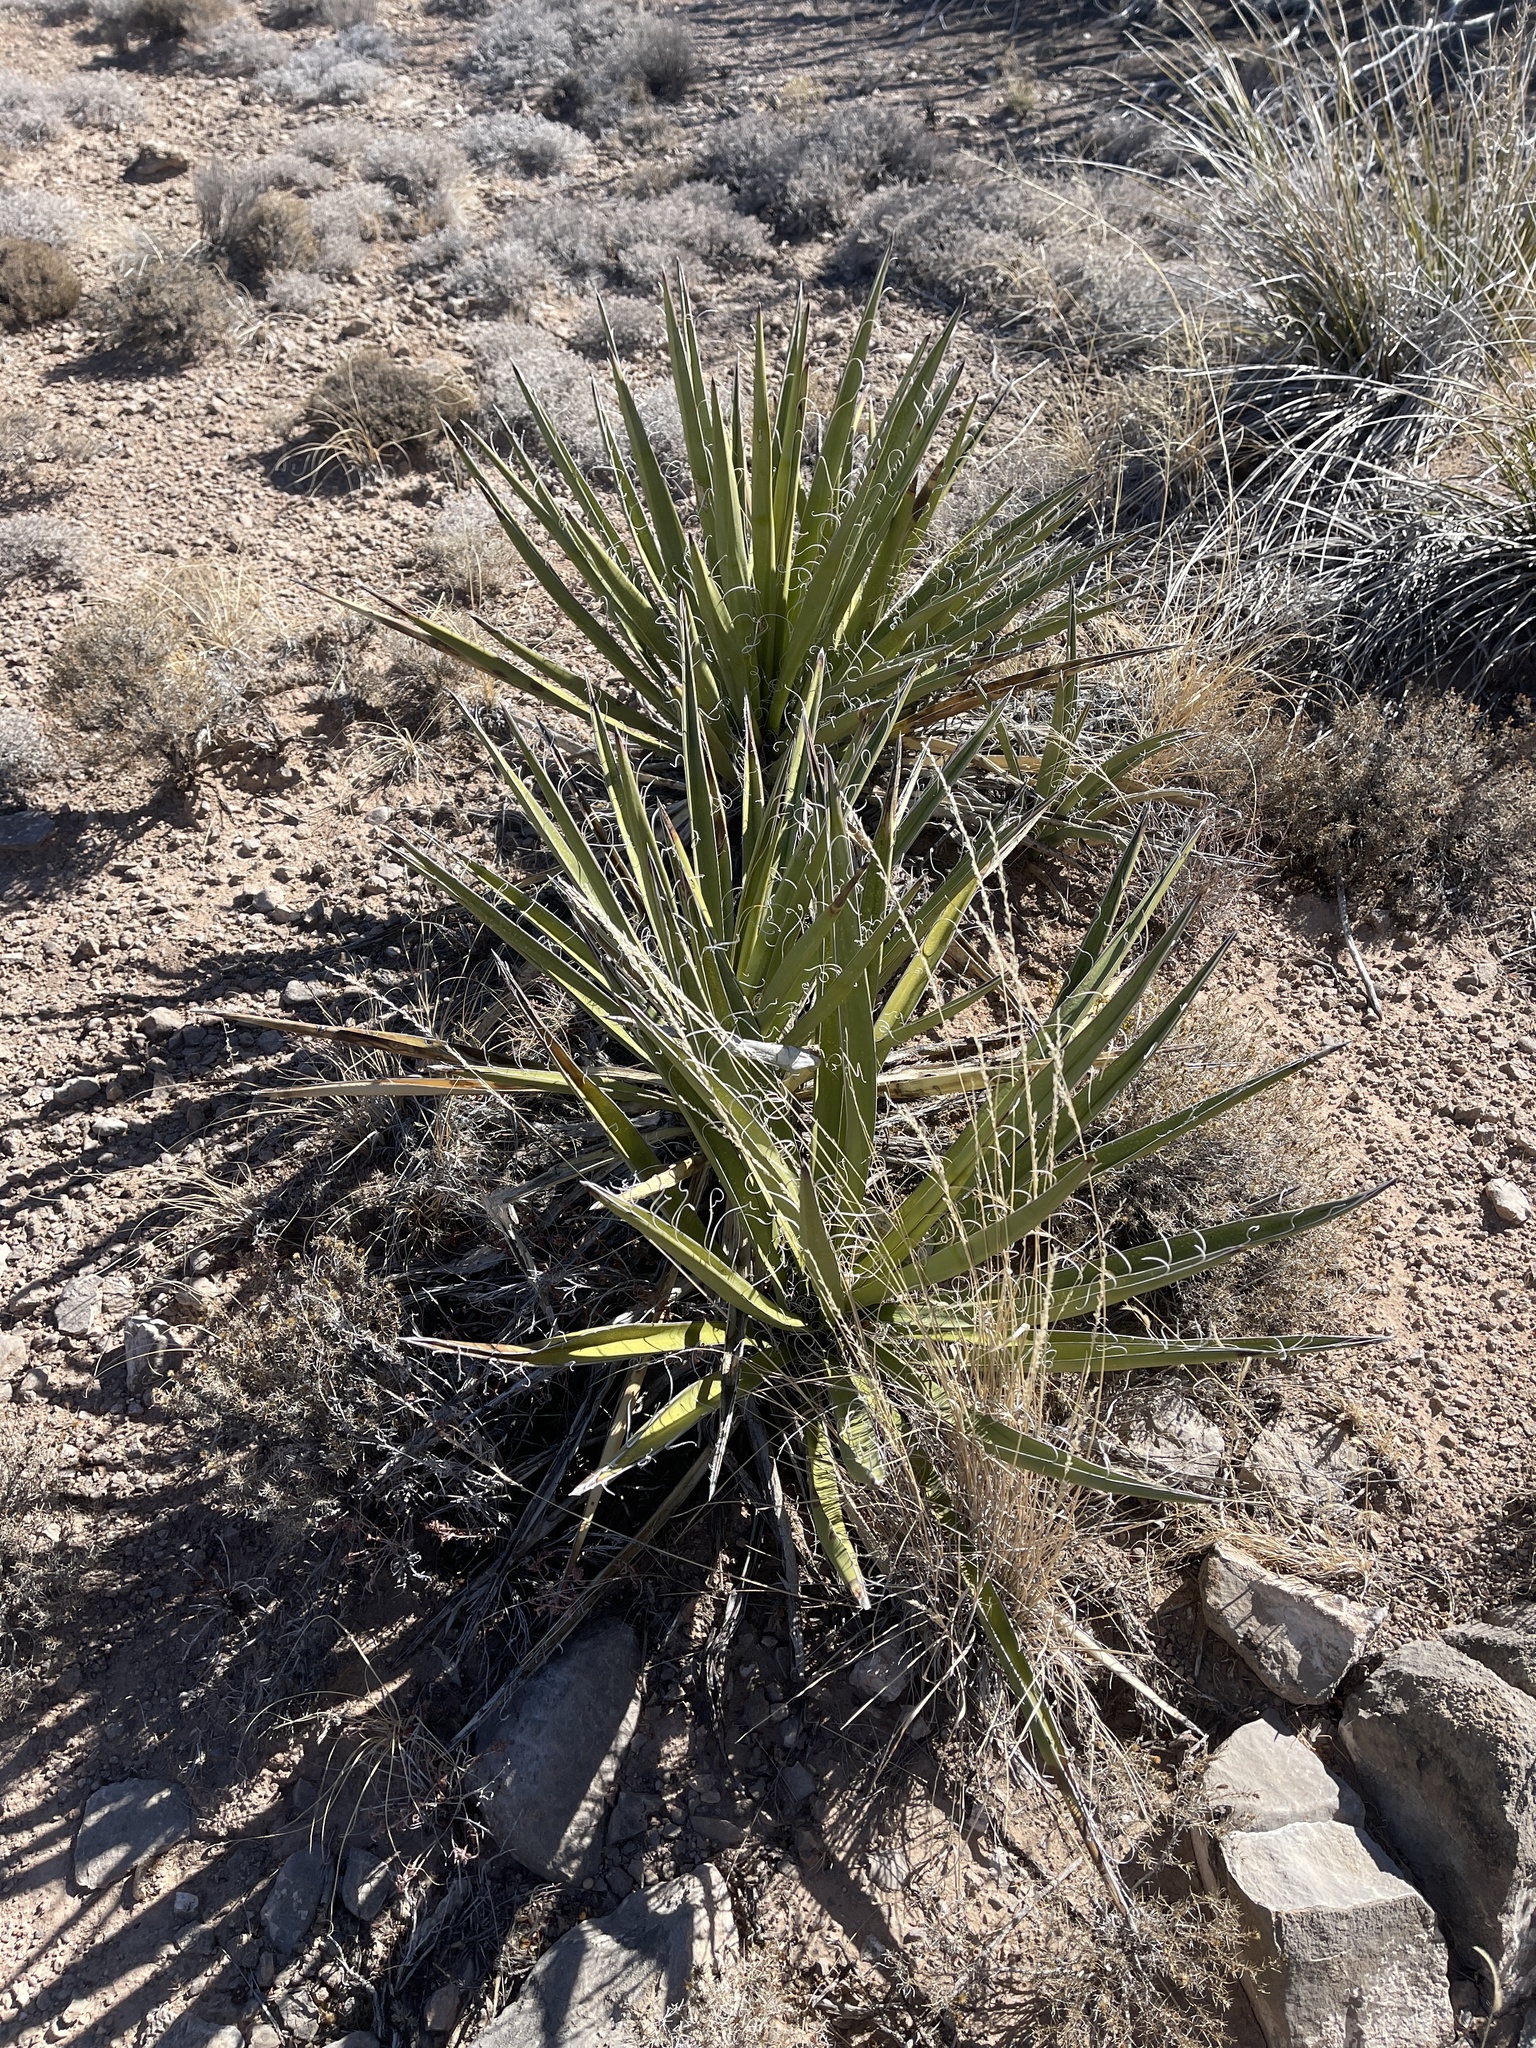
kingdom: Plantae
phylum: Tracheophyta
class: Liliopsida
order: Asparagales
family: Asparagaceae
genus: Yucca
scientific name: Yucca baccata
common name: Banana yucca
